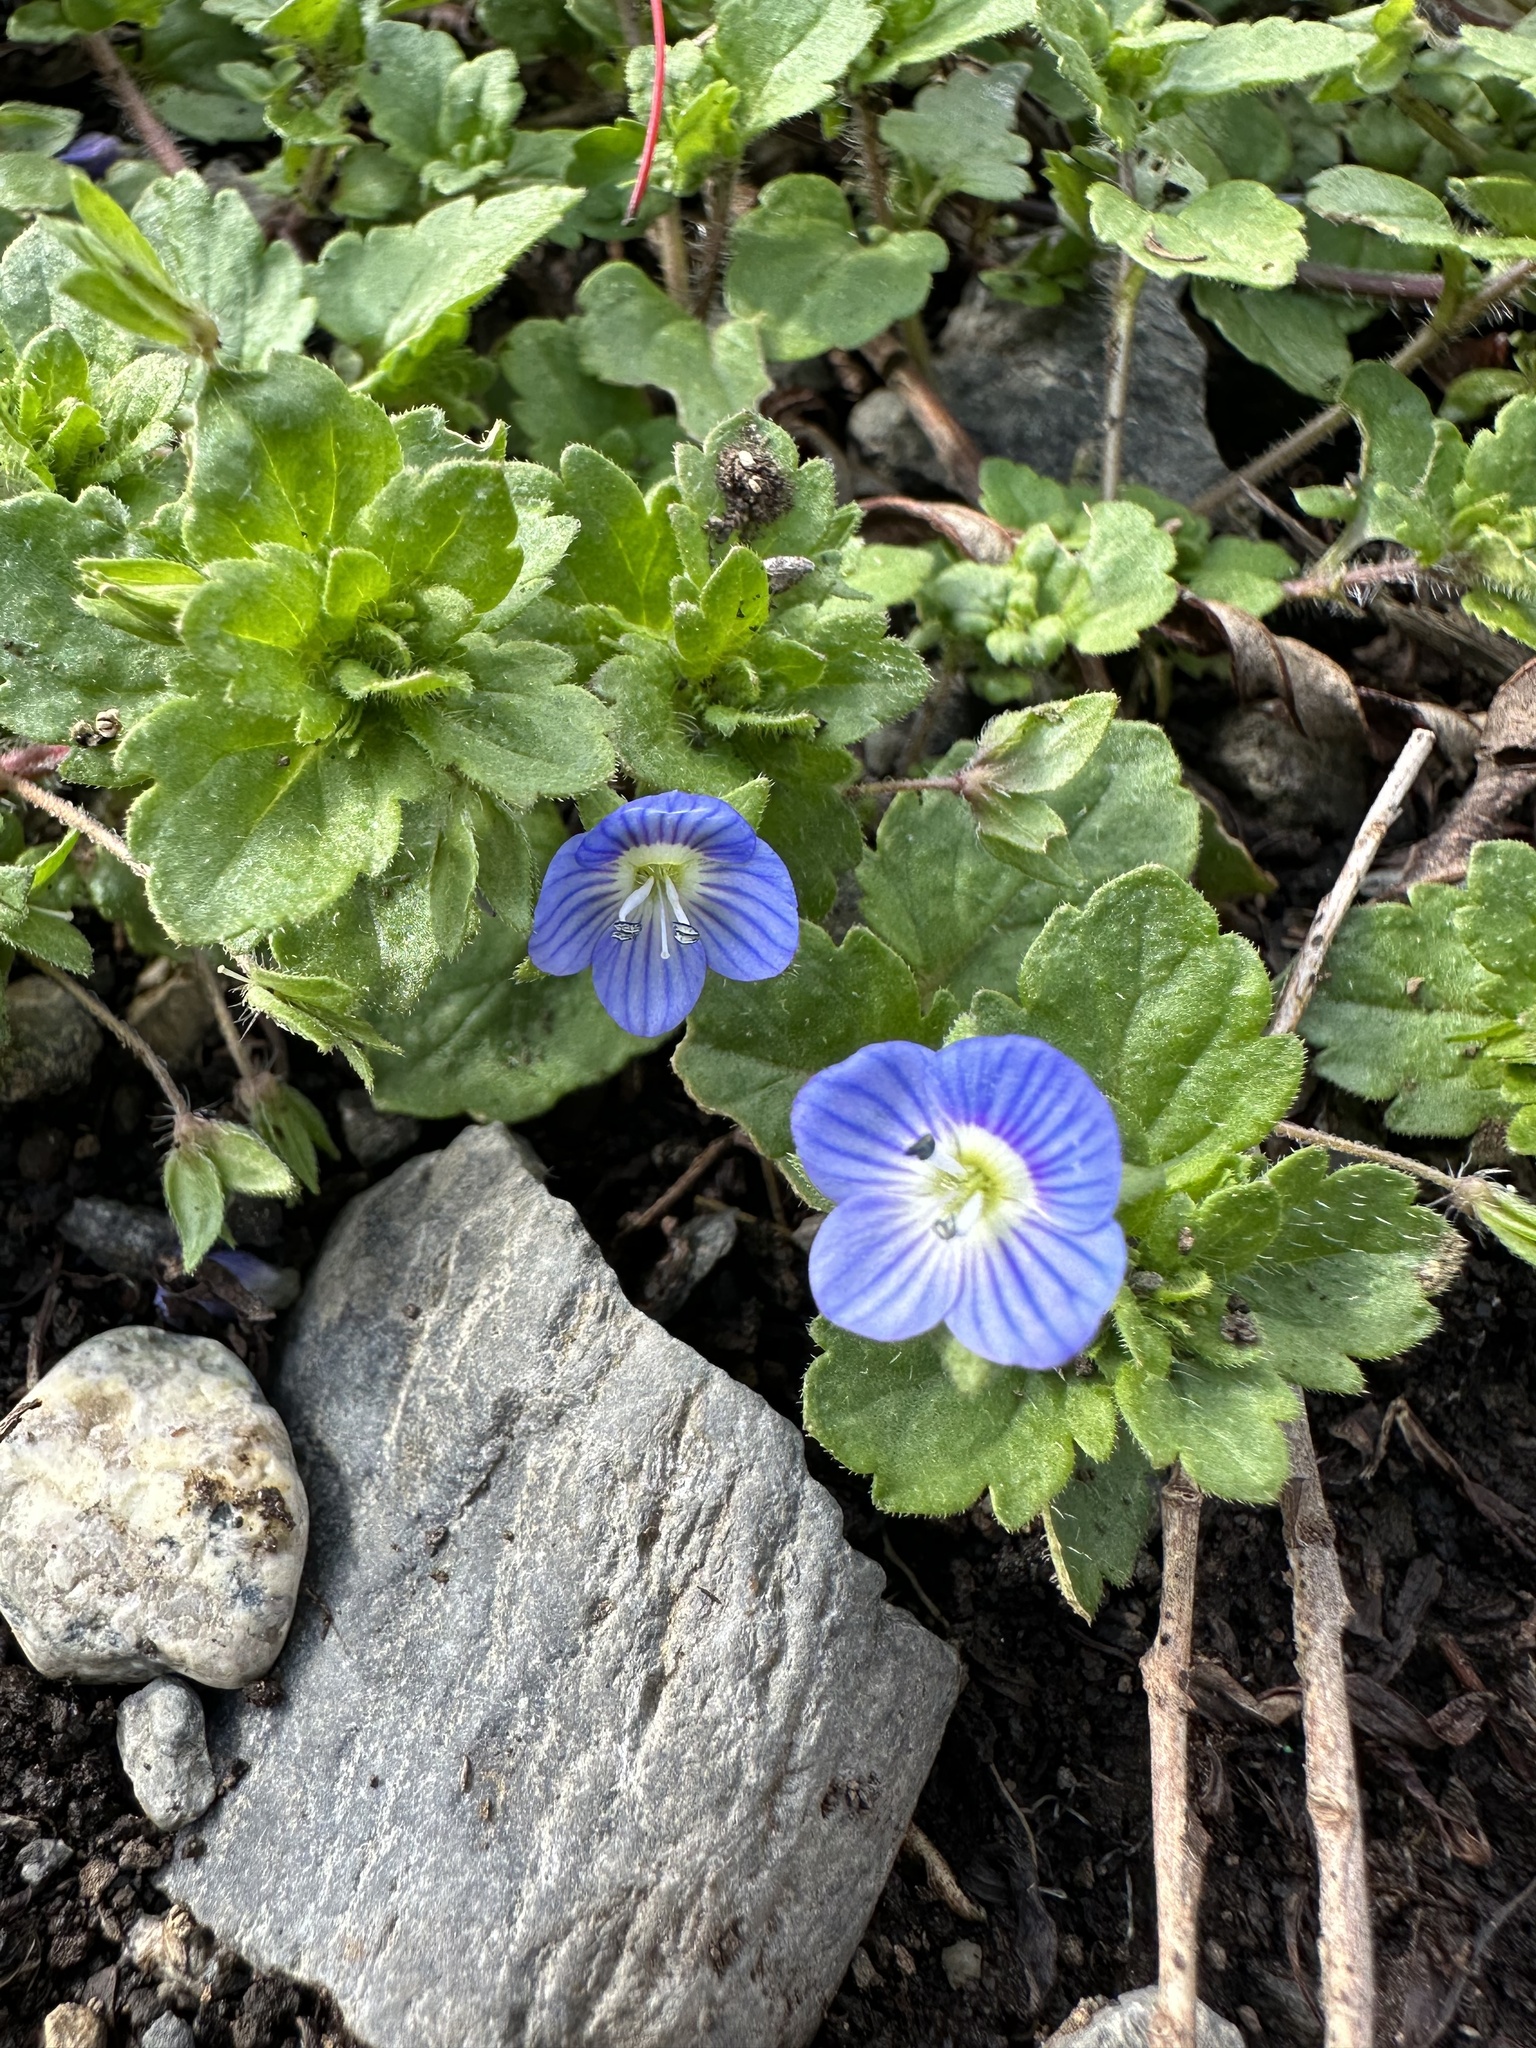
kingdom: Plantae
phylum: Tracheophyta
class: Magnoliopsida
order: Lamiales
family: Plantaginaceae
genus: Veronica
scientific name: Veronica persica
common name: Common field-speedwell
